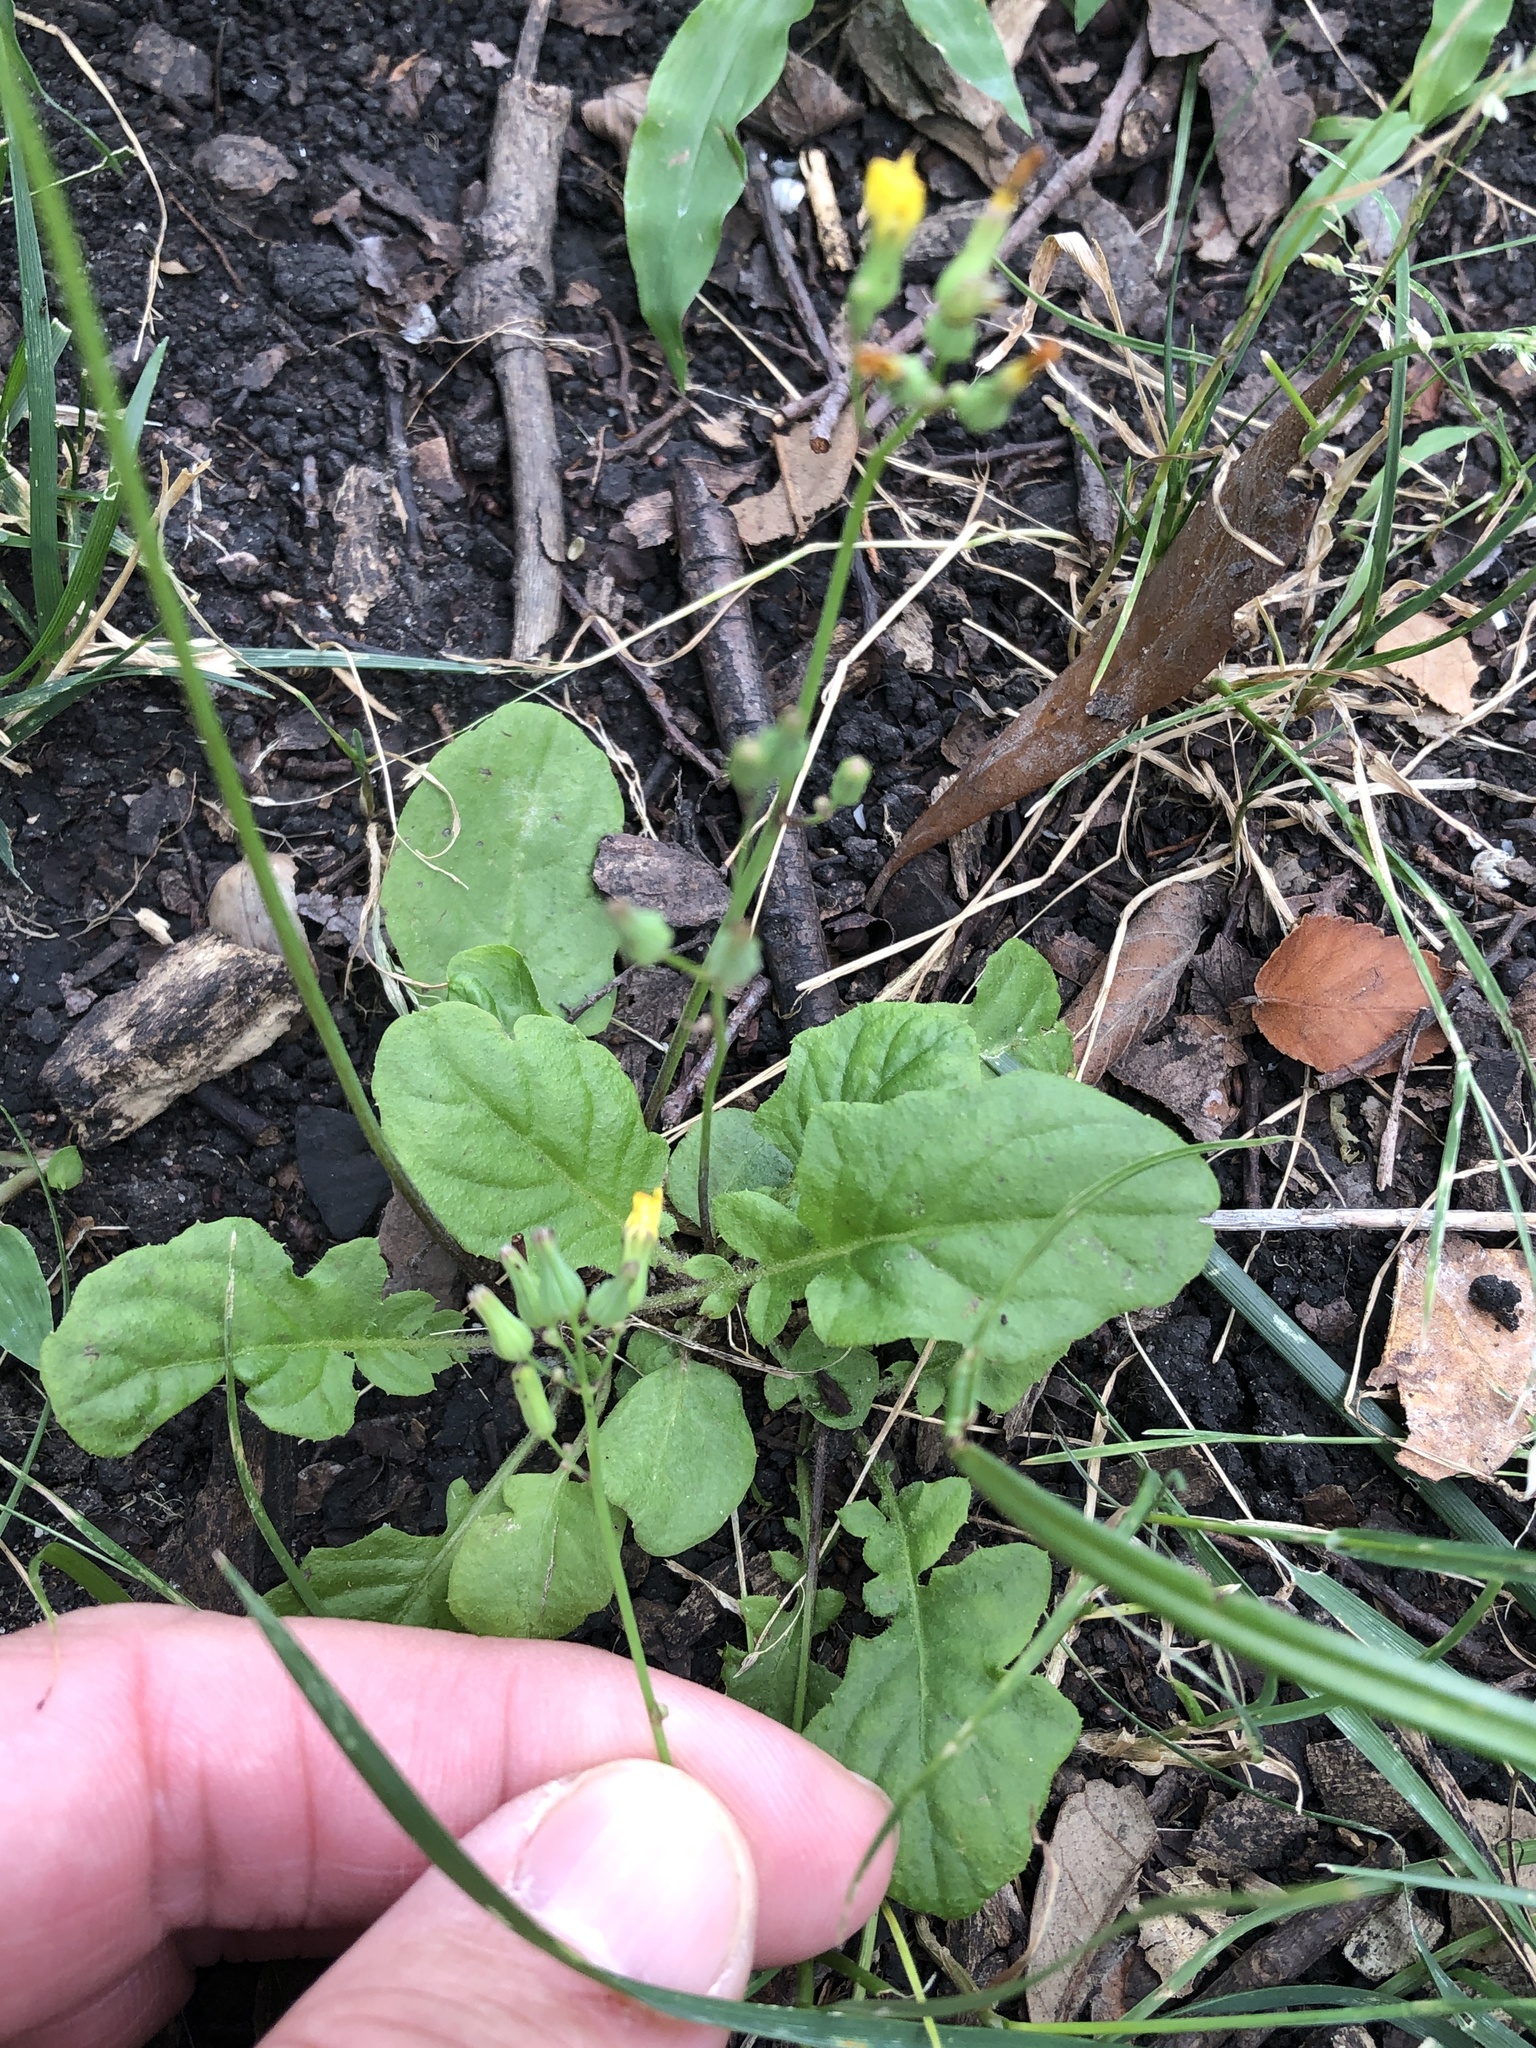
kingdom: Plantae
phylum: Tracheophyta
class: Magnoliopsida
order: Asterales
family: Asteraceae
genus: Youngia
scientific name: Youngia japonica
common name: Oriental false hawksbeard
